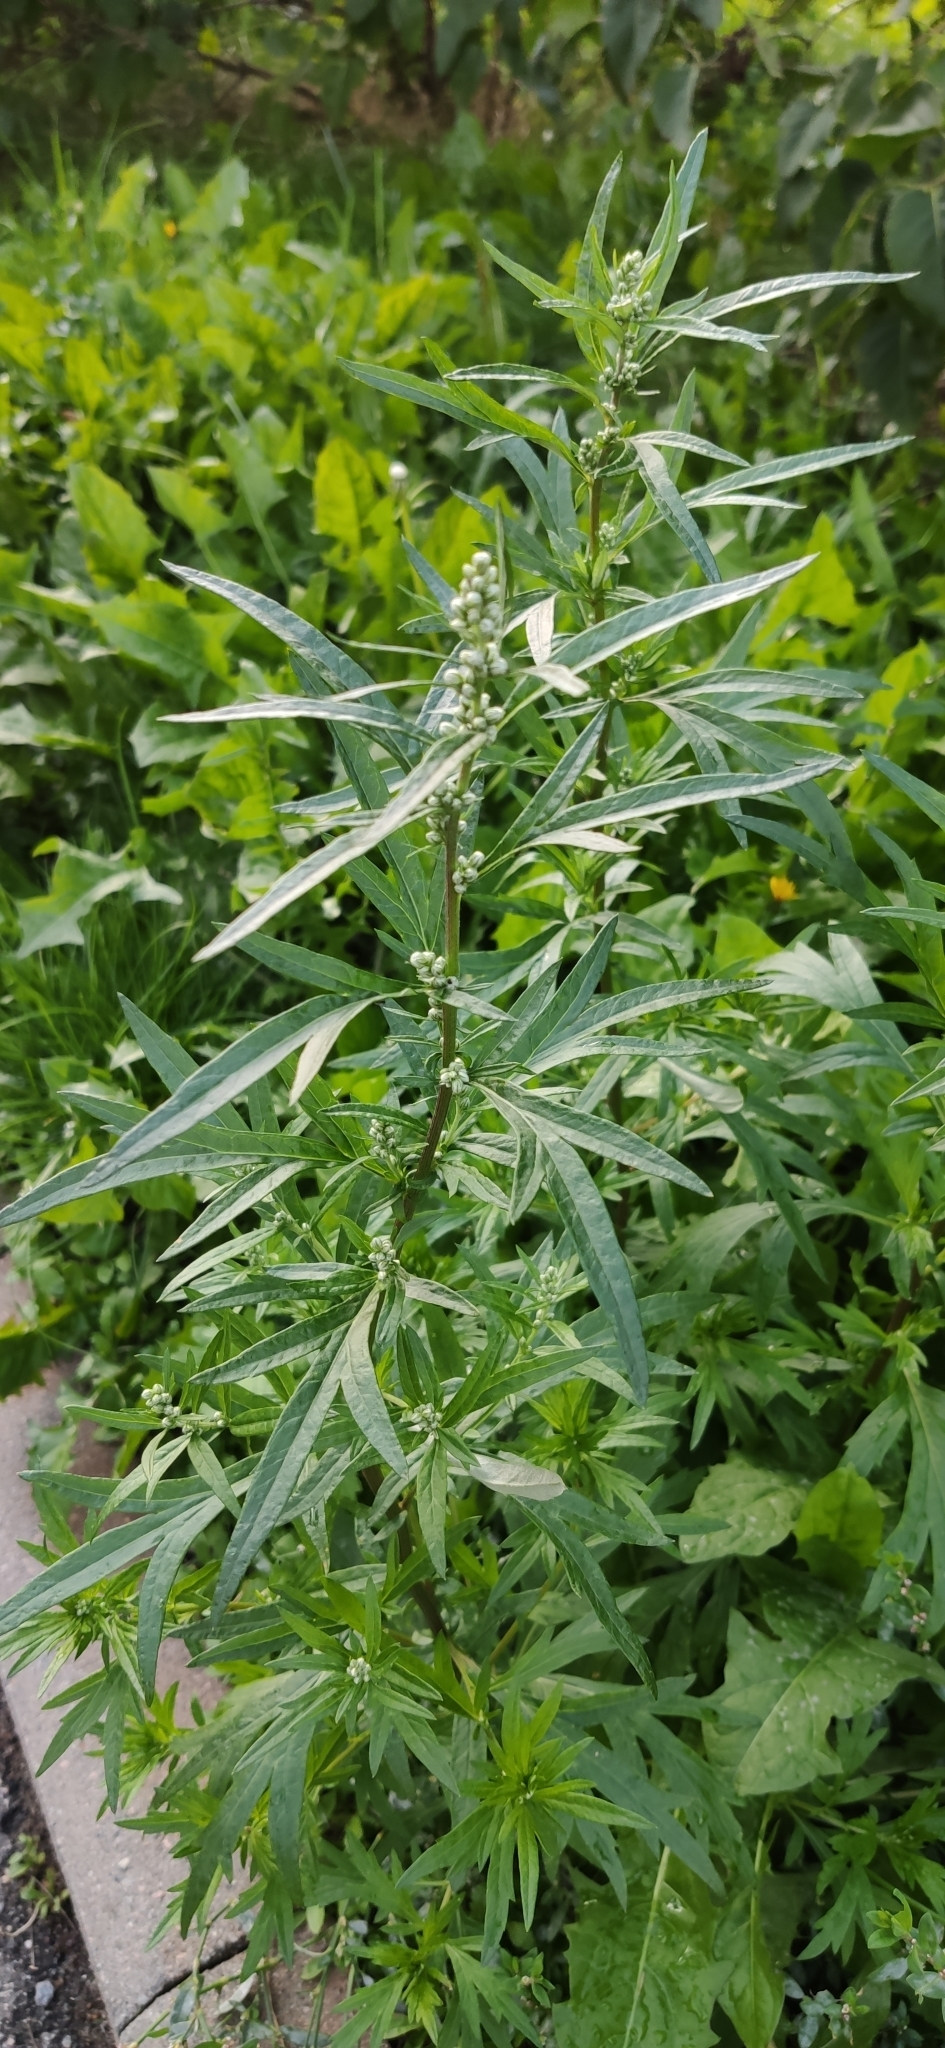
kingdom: Plantae
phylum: Tracheophyta
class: Magnoliopsida
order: Asterales
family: Asteraceae
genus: Artemisia
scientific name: Artemisia vulgaris
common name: Mugwort
